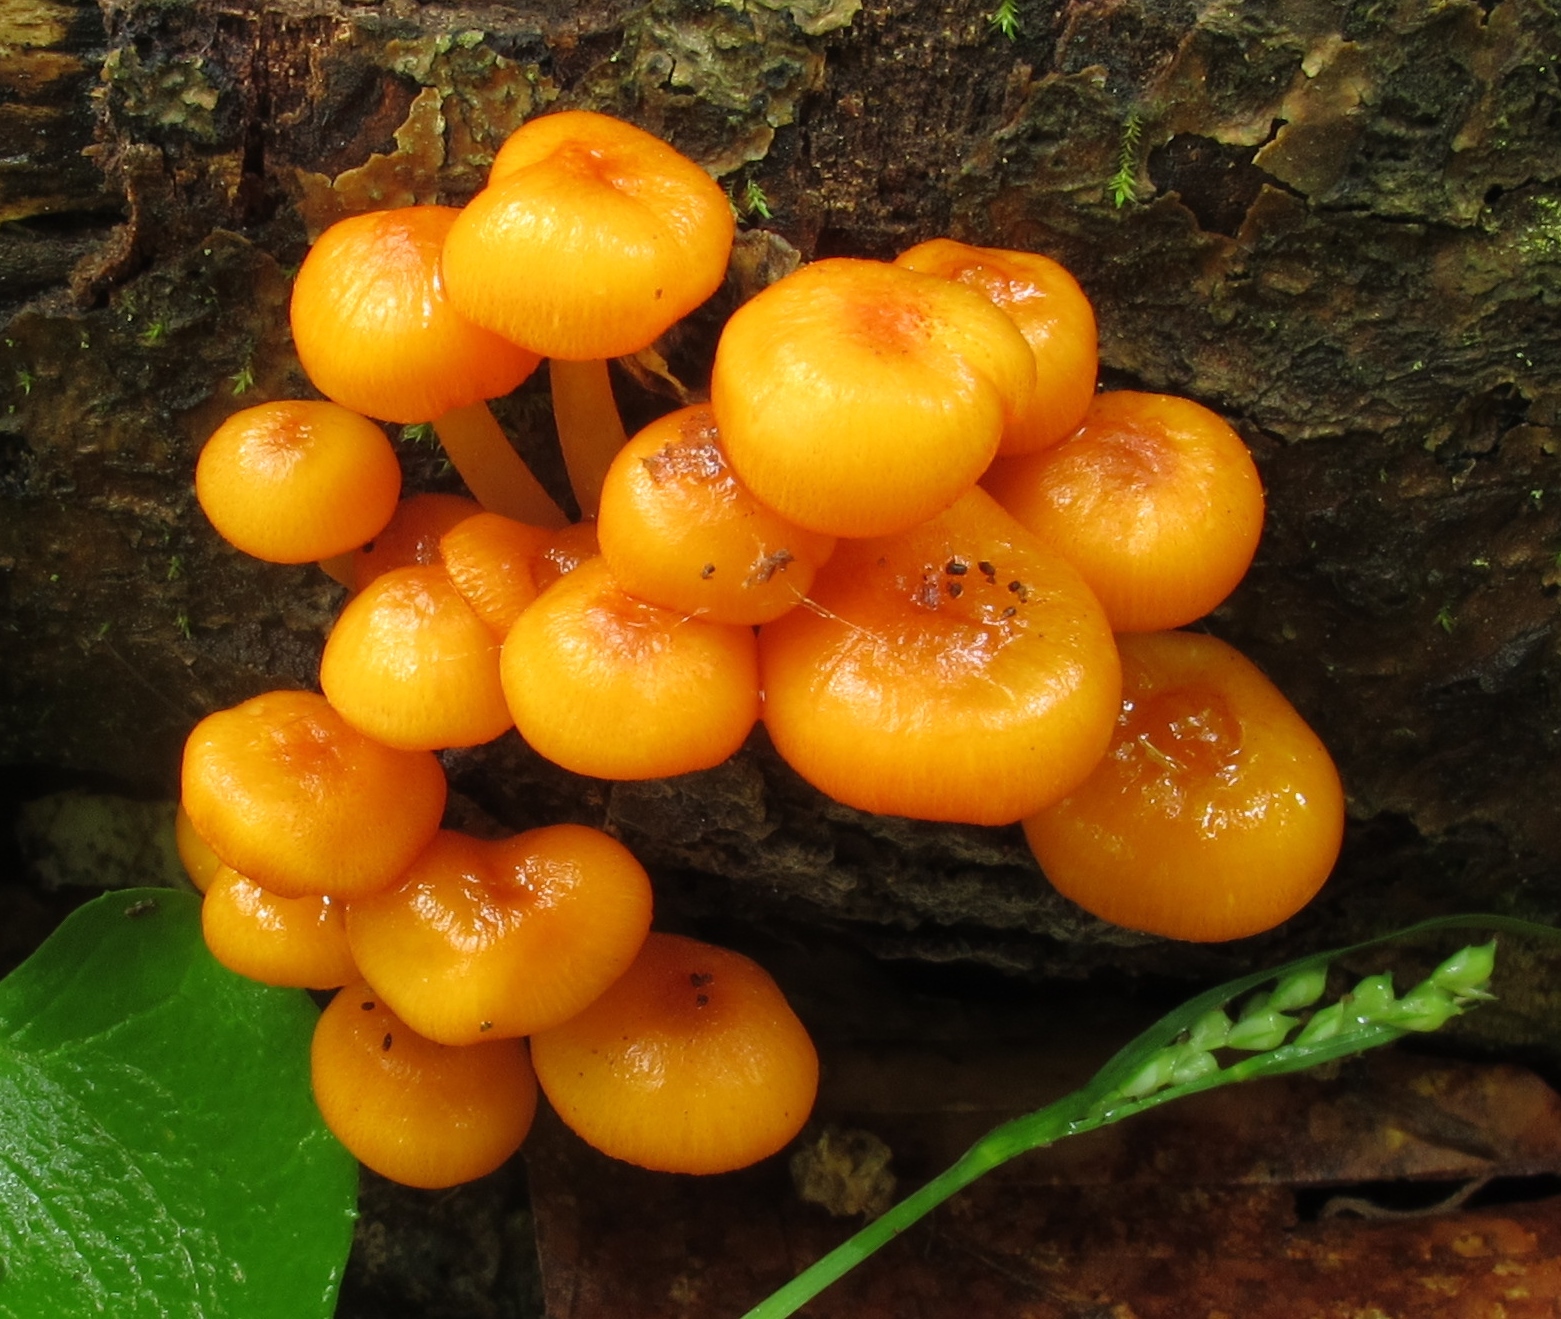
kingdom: Fungi
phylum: Basidiomycota
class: Agaricomycetes
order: Agaricales
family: Mycenaceae
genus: Mycena
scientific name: Mycena leaiana
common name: Orange mycena
